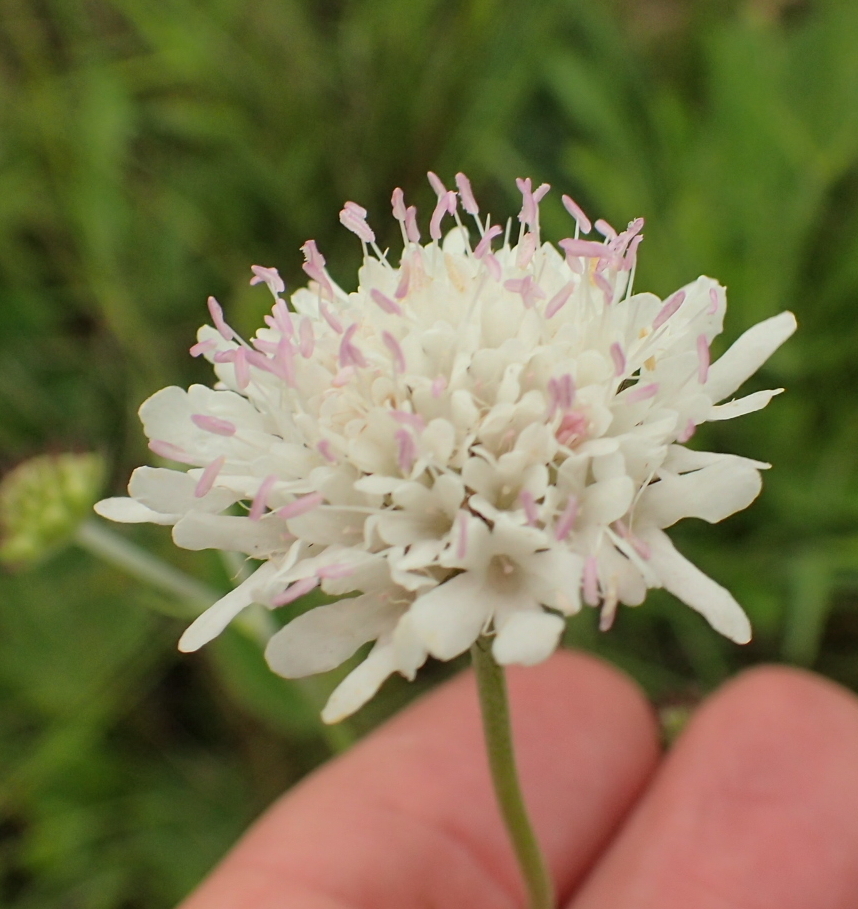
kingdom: Plantae
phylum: Tracheophyta
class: Magnoliopsida
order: Dipsacales
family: Caprifoliaceae
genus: Scabiosa
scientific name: Scabiosa columbaria
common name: Small scabious
